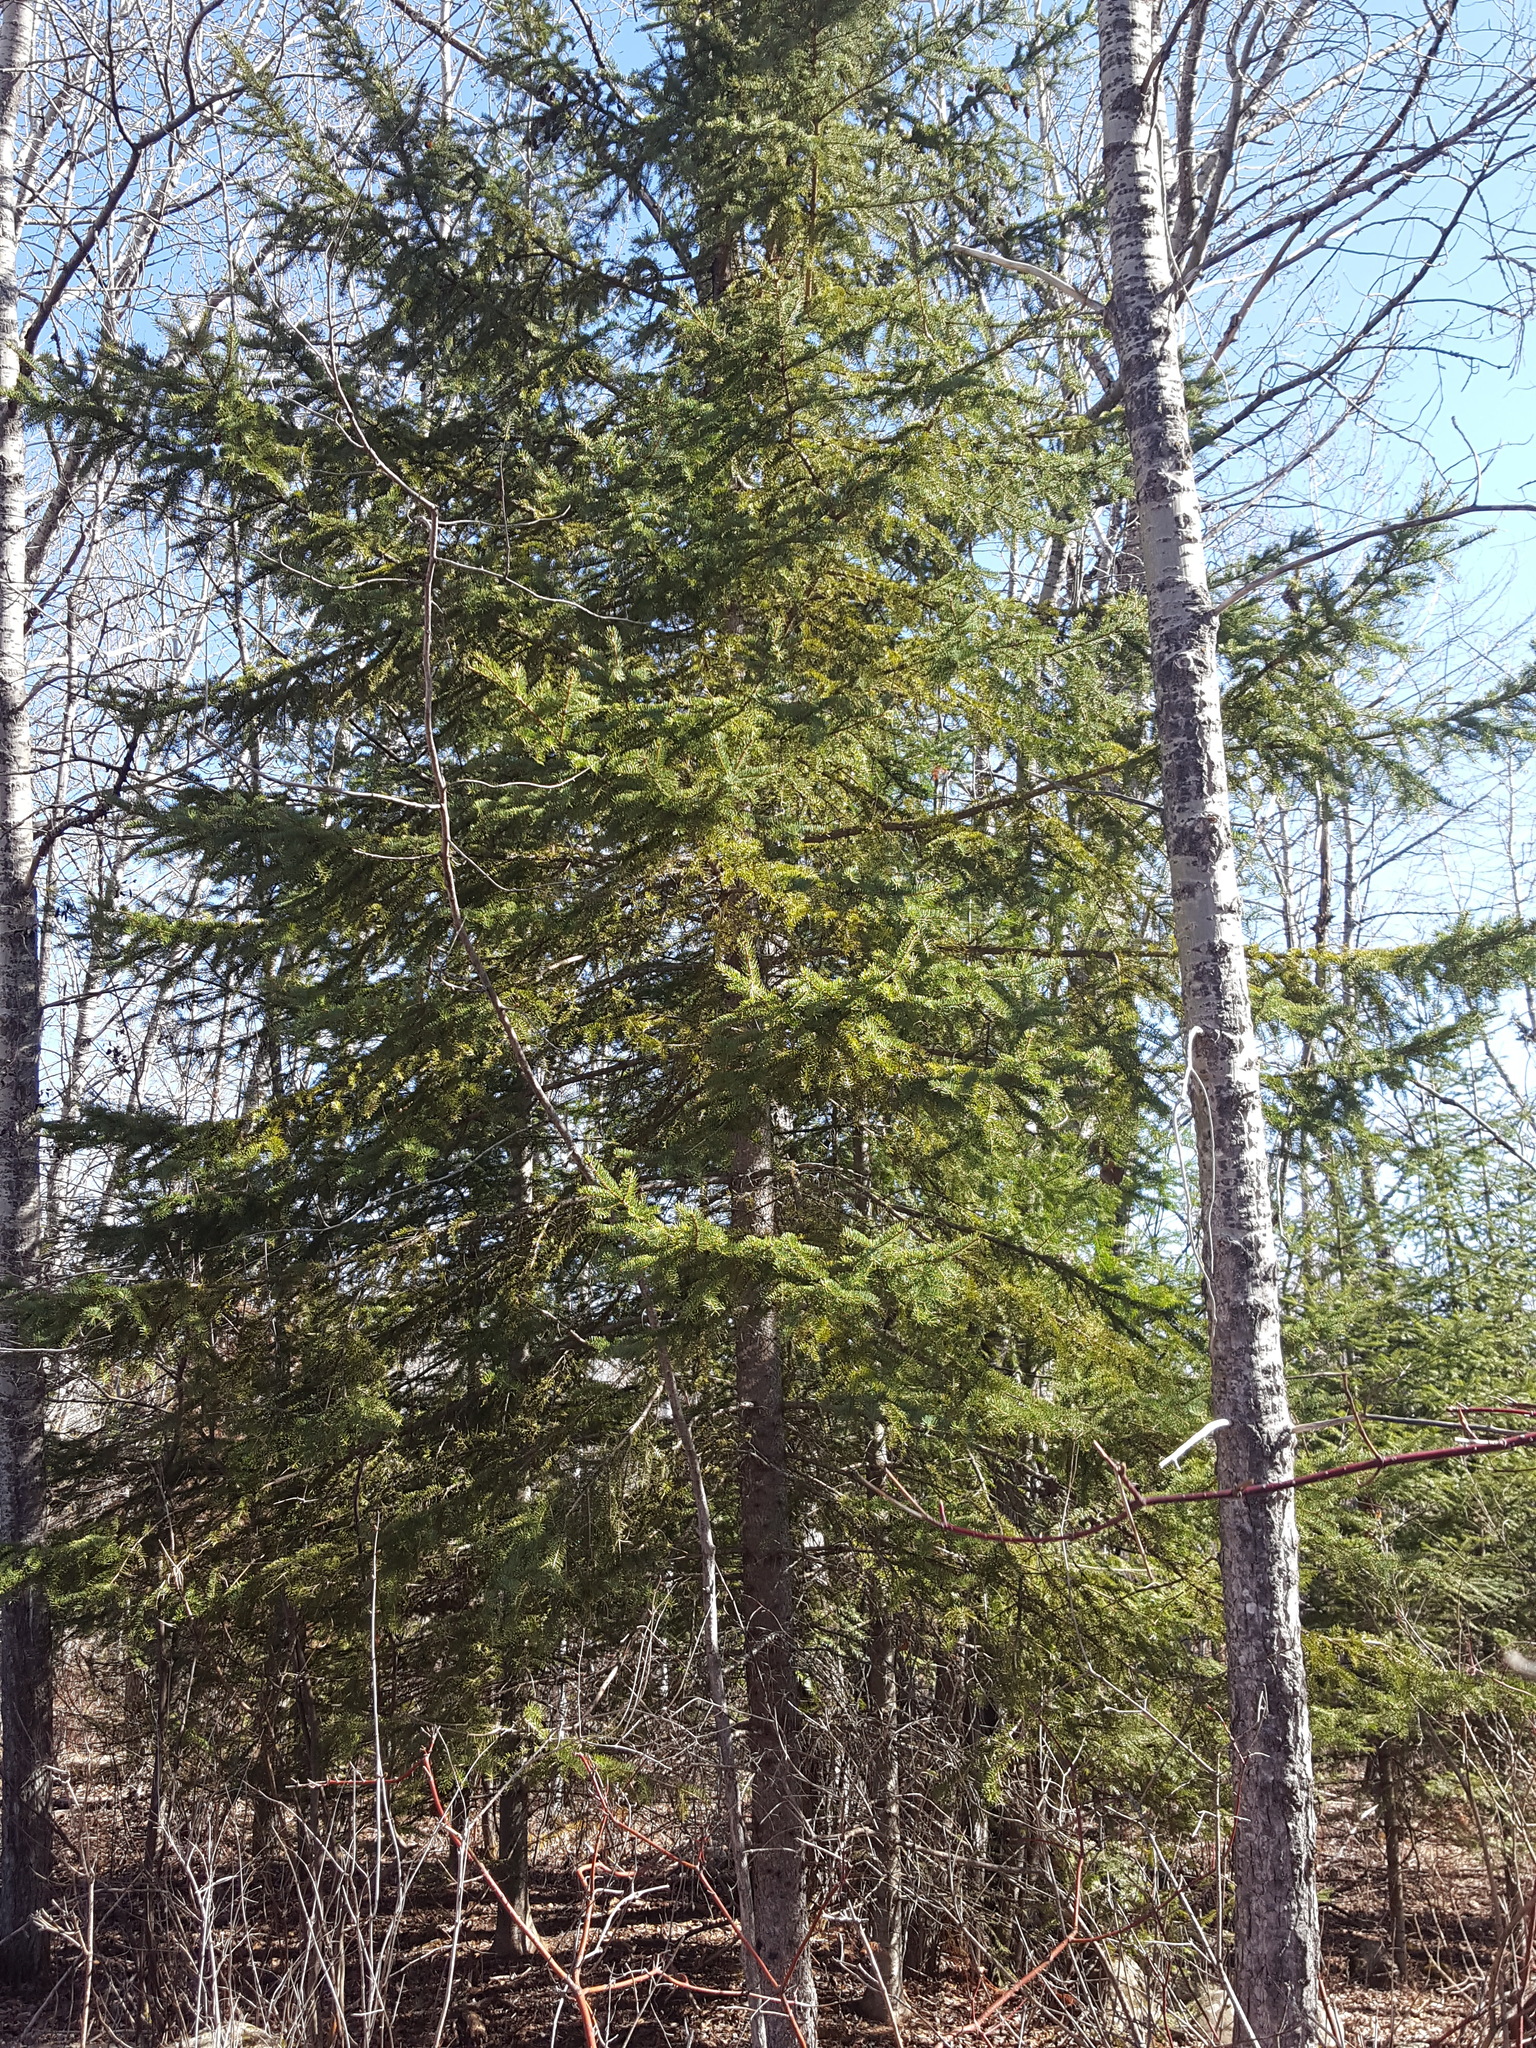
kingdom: Plantae
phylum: Tracheophyta
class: Pinopsida
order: Pinales
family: Pinaceae
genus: Picea
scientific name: Picea glauca
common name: White spruce
